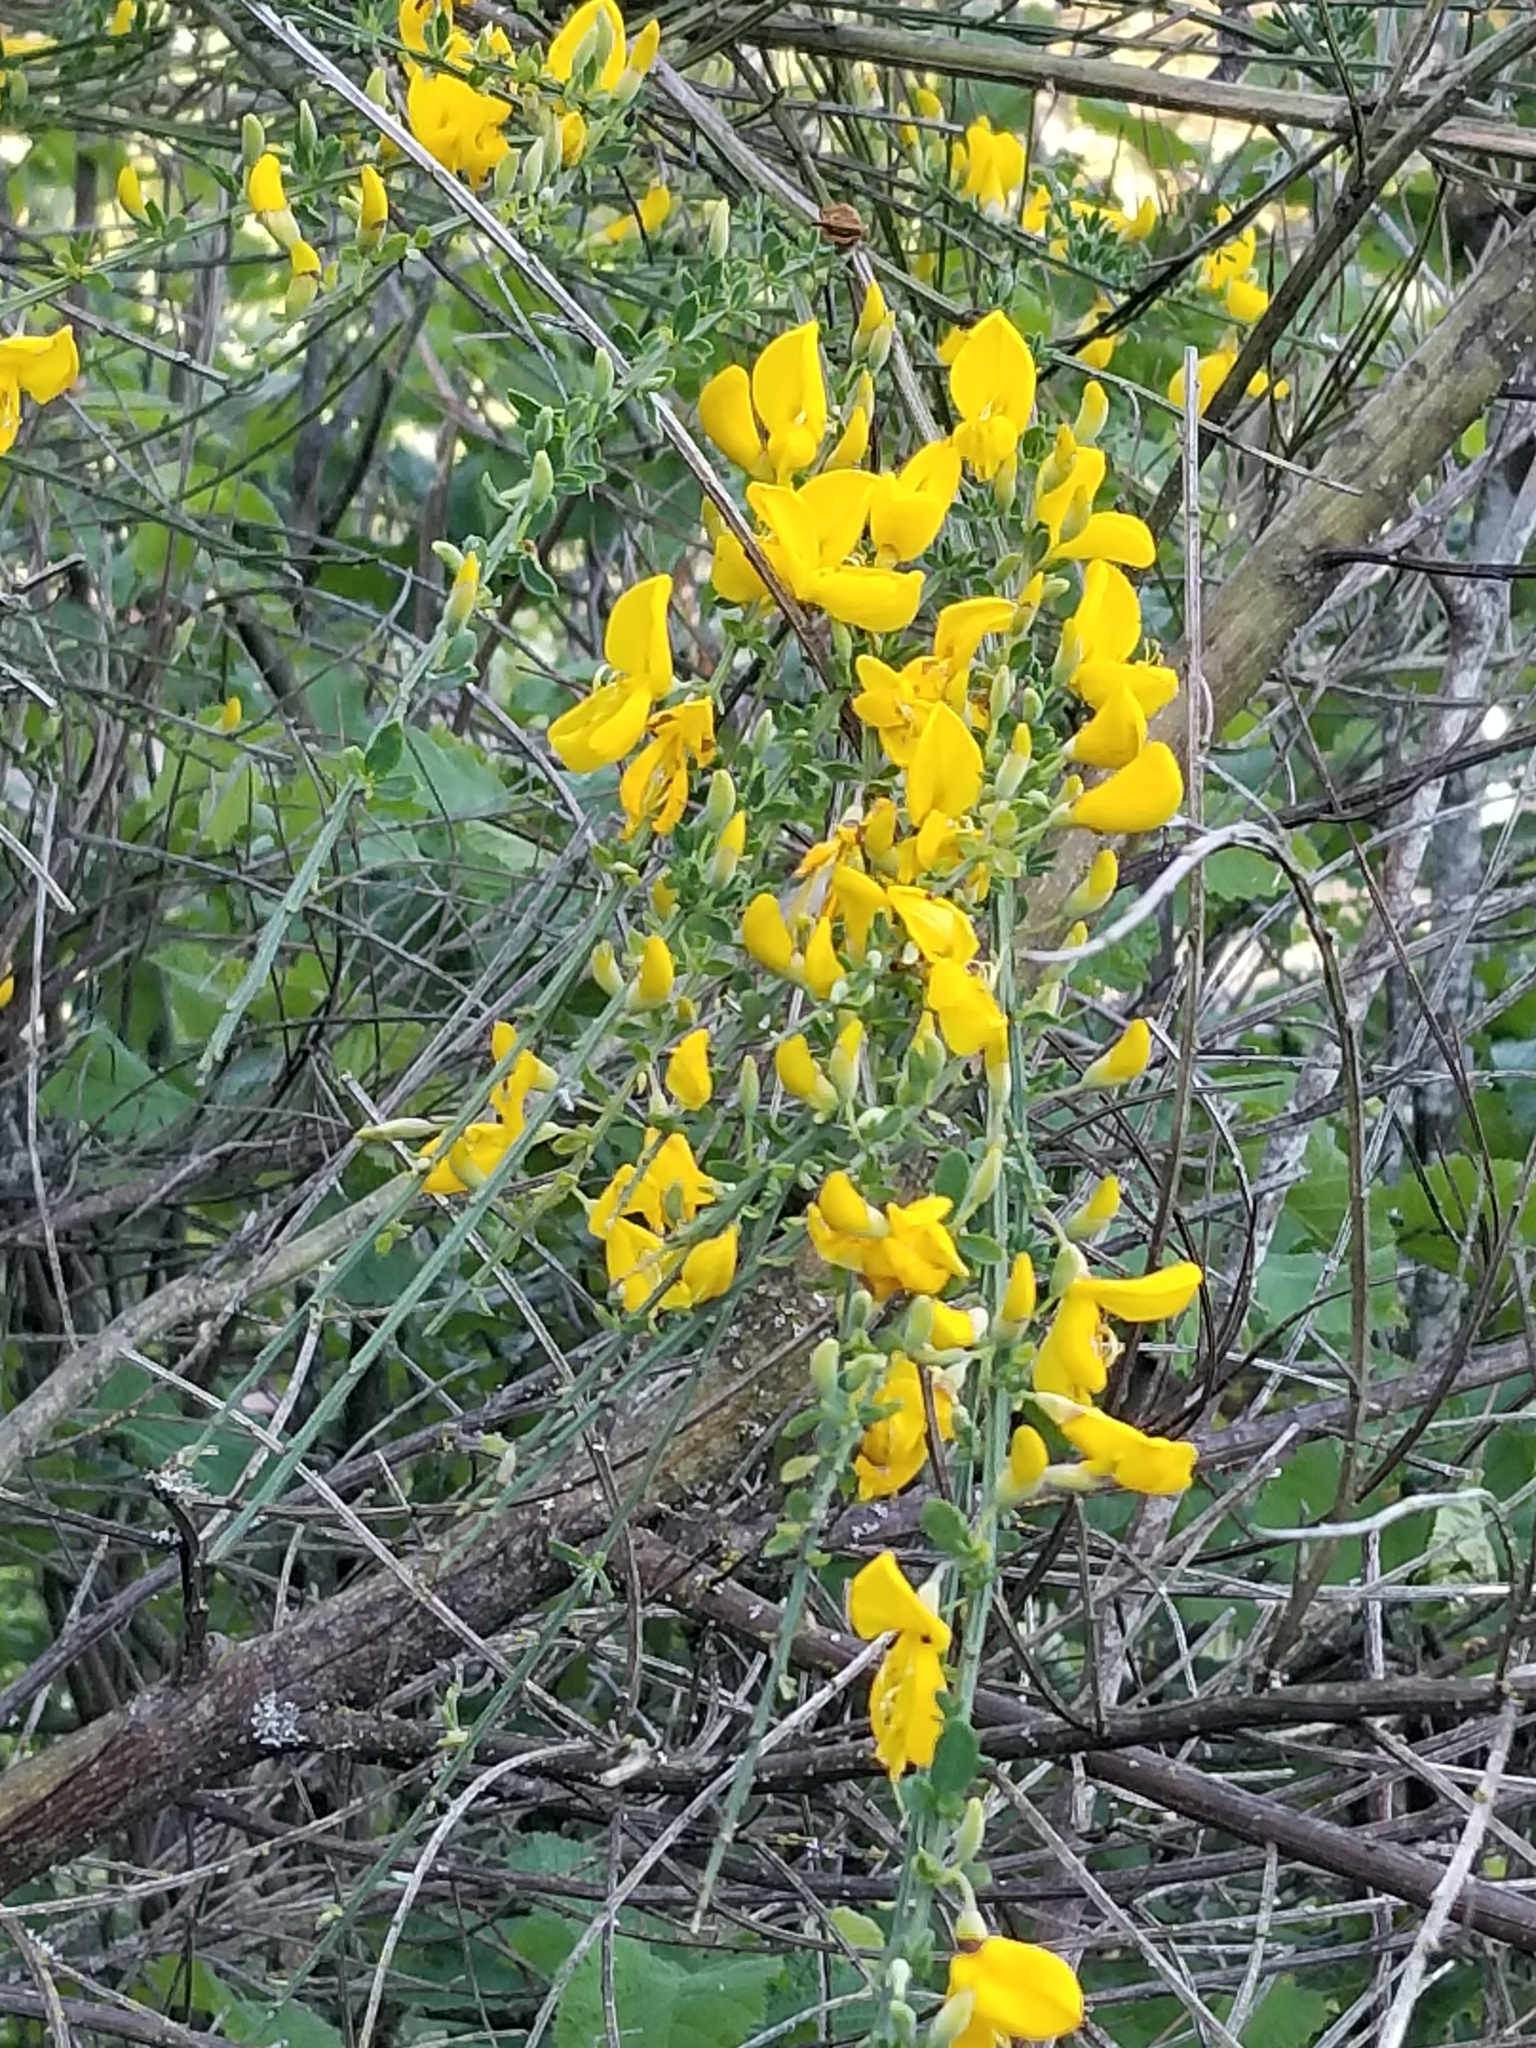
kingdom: Plantae
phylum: Tracheophyta
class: Magnoliopsida
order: Fabales
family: Fabaceae
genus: Cytisus
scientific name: Cytisus scoparius
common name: Scotch broom
